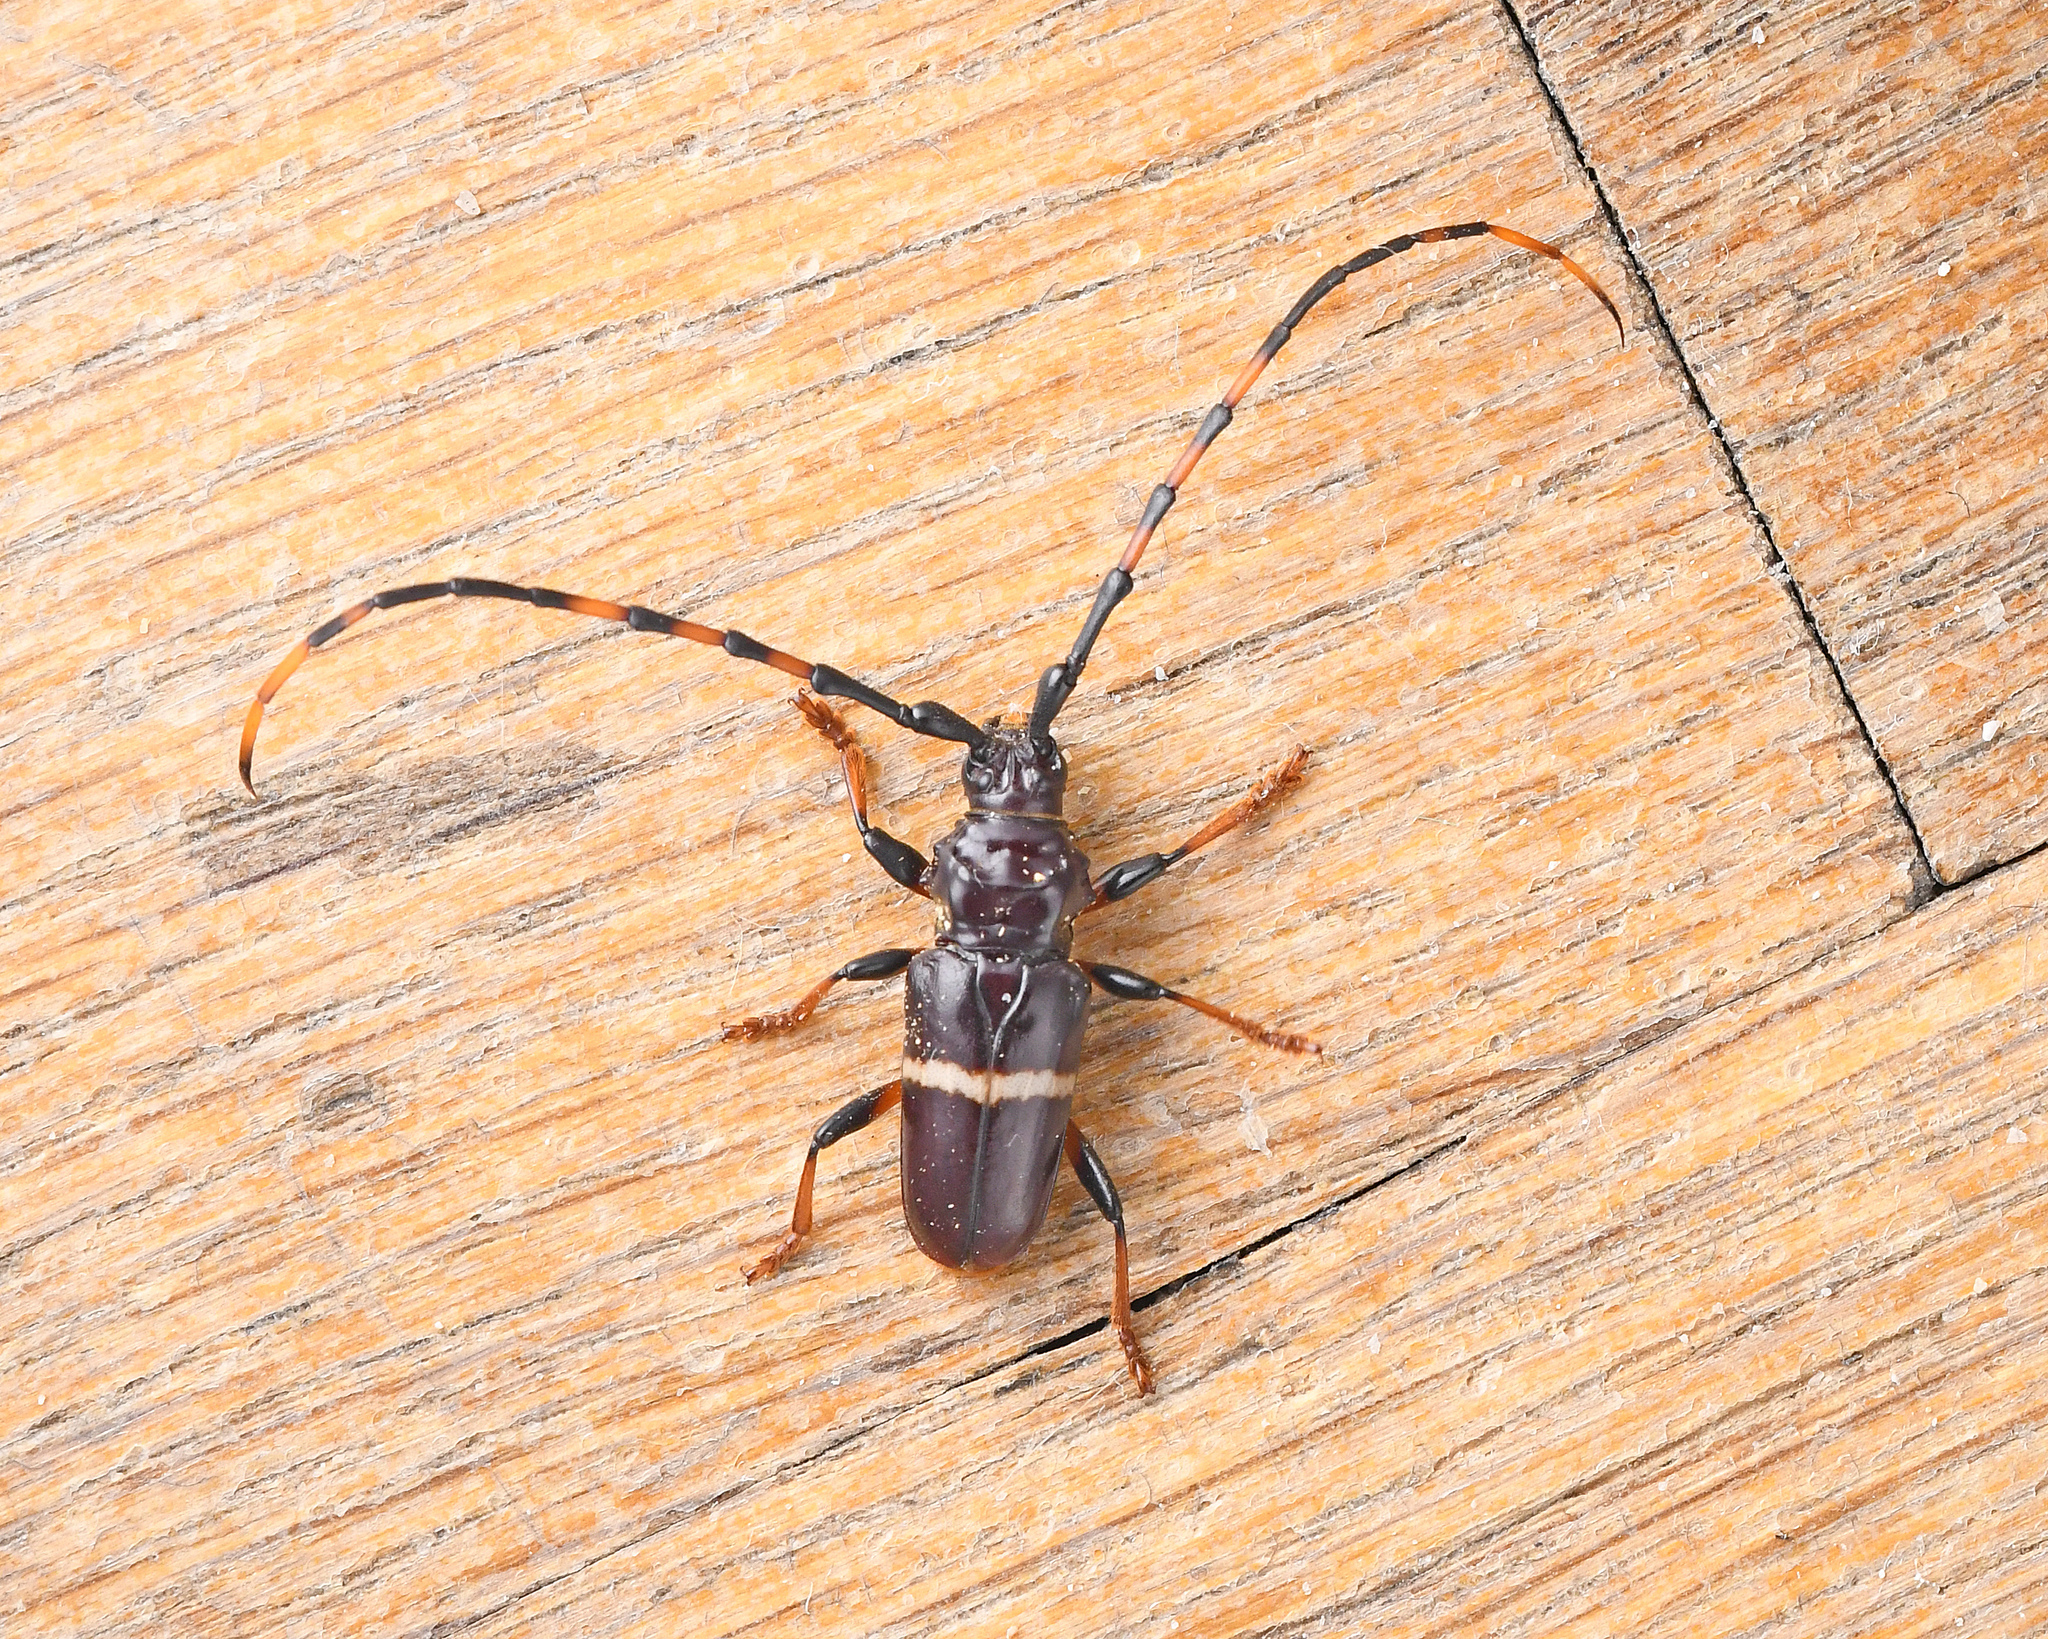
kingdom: Animalia
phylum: Arthropoda
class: Insecta
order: Coleoptera
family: Cerambycidae
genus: Trachyderes
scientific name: Trachyderes succinctus
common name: Mango longhorn
